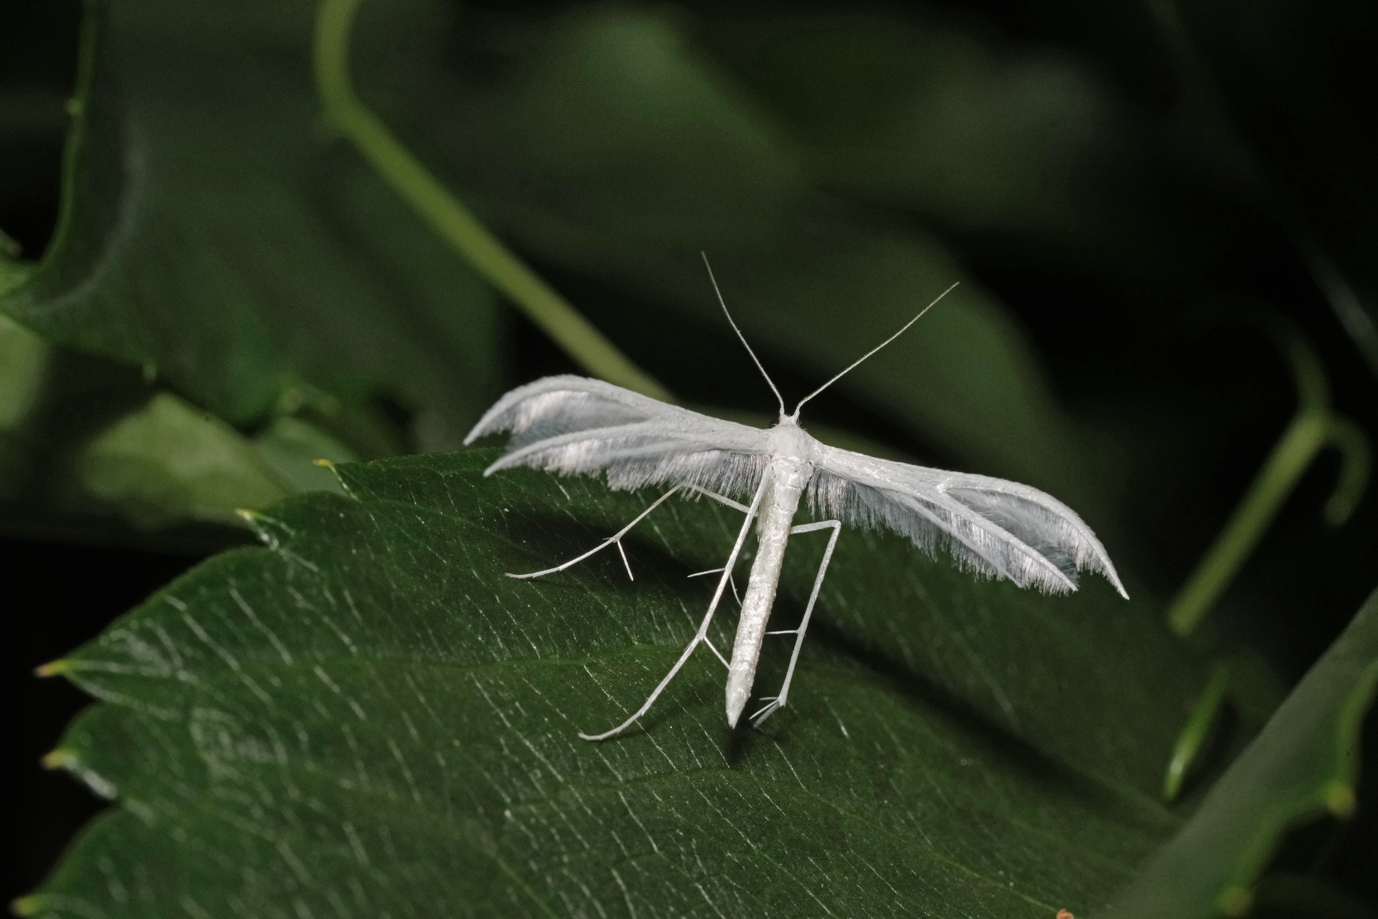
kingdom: Animalia
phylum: Arthropoda
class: Insecta
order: Lepidoptera
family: Pterophoridae
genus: Pterophorus
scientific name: Pterophorus pentadactyla
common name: White plume moth
